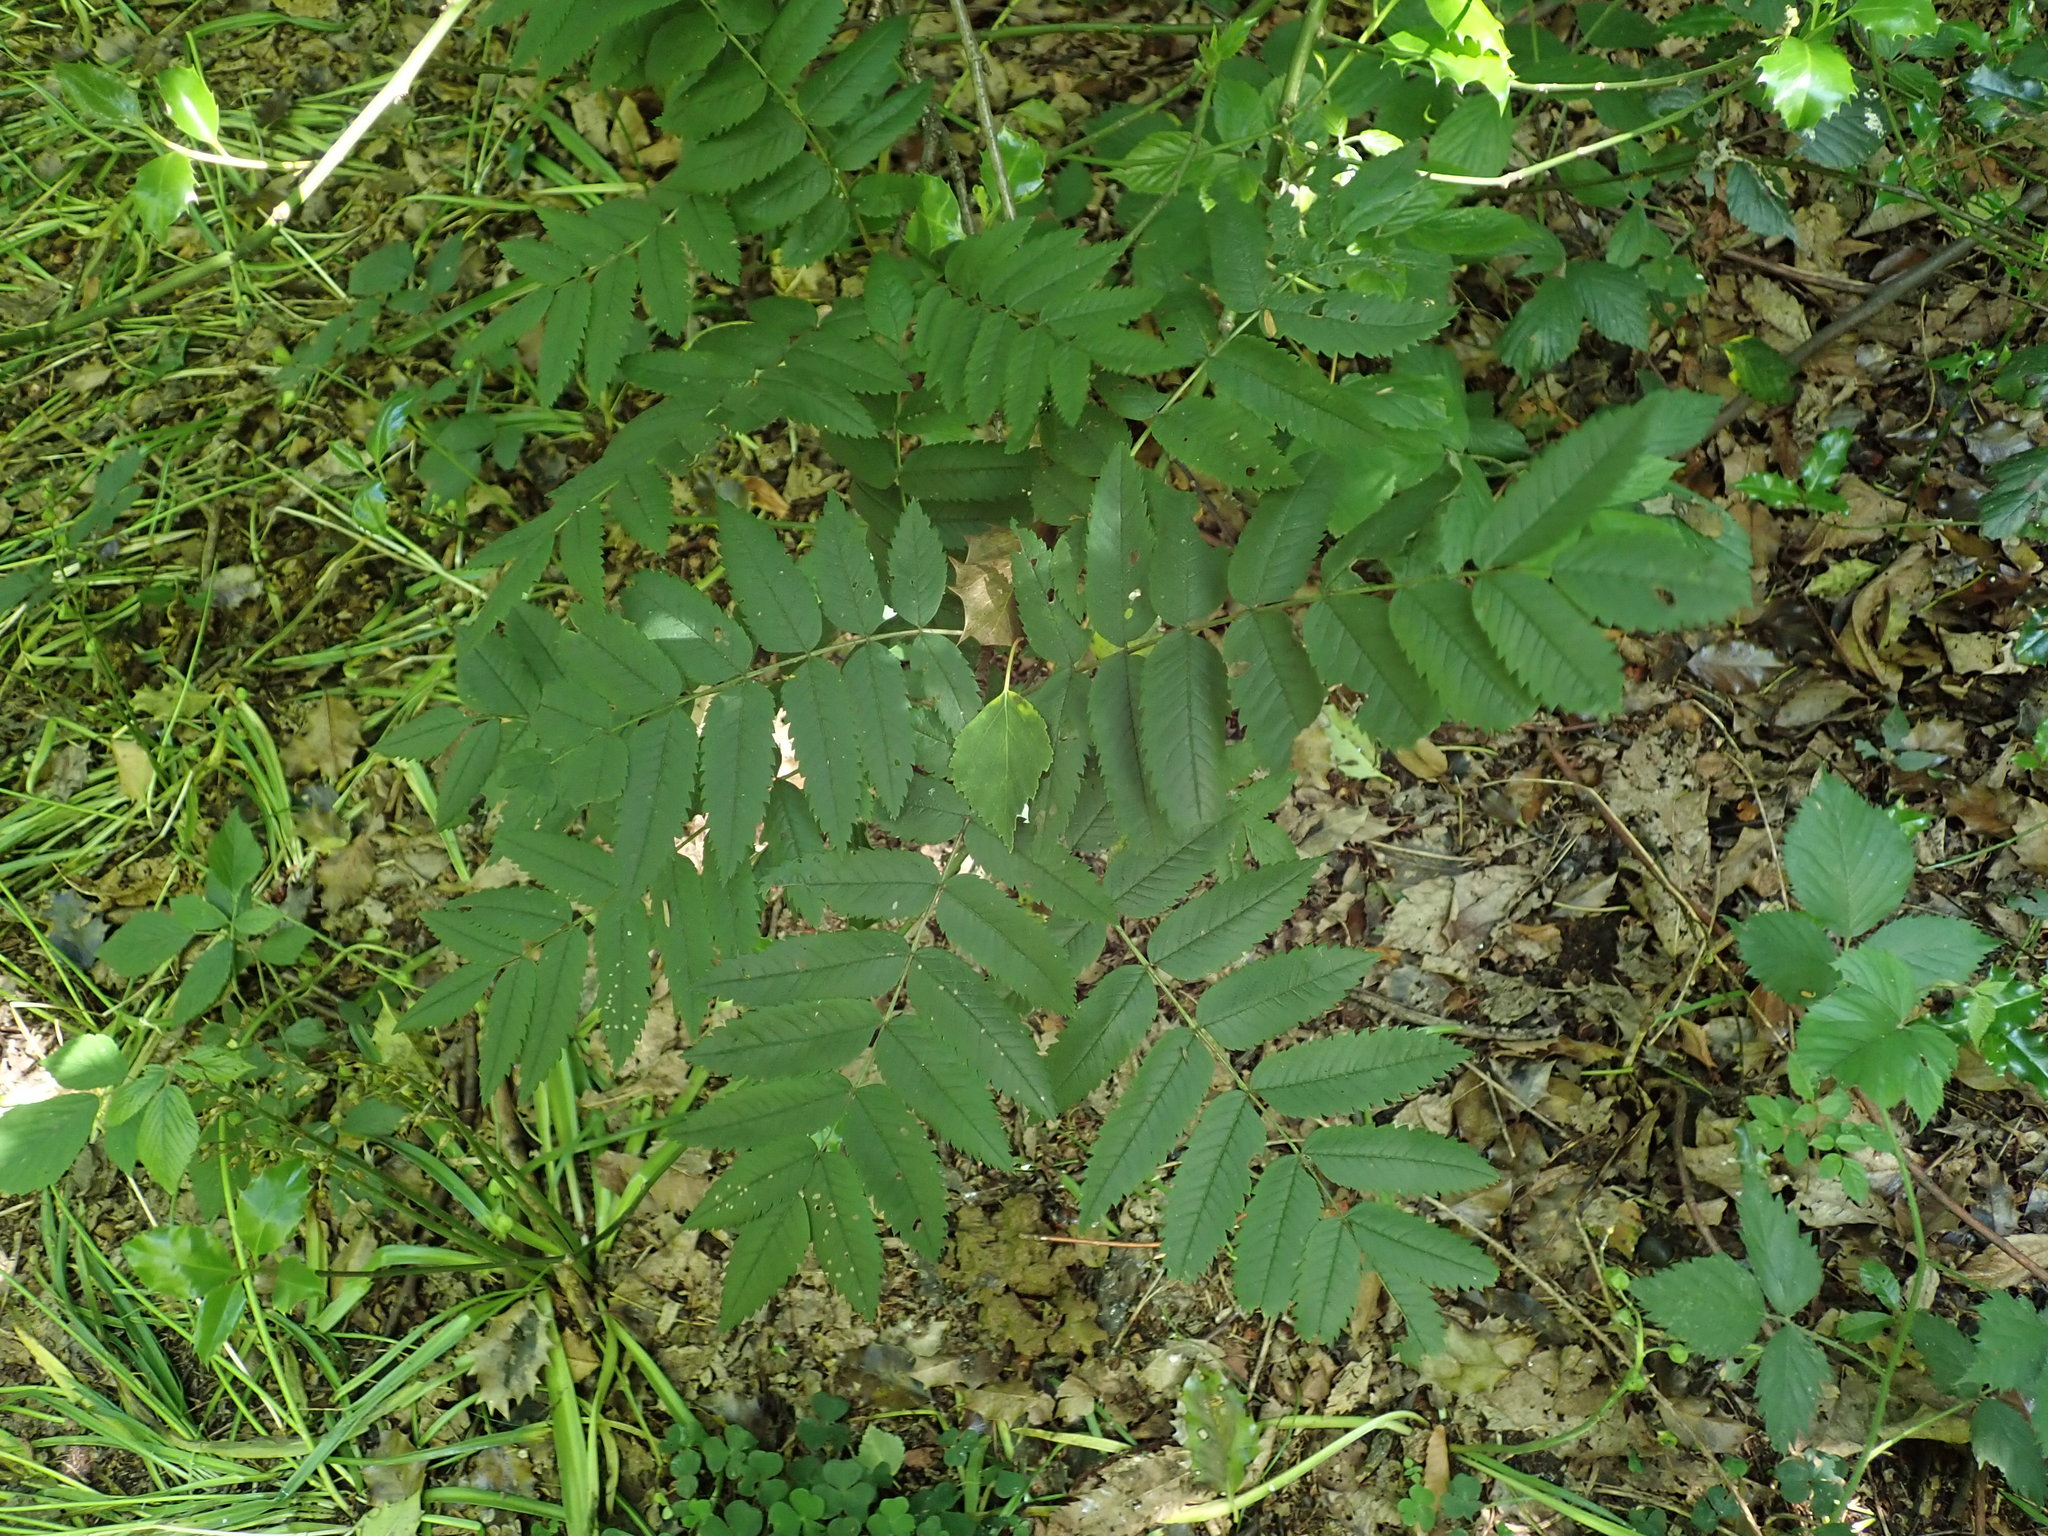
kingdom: Plantae
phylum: Tracheophyta
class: Magnoliopsida
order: Rosales
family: Rosaceae
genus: Sorbus
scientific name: Sorbus aucuparia
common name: Rowan
